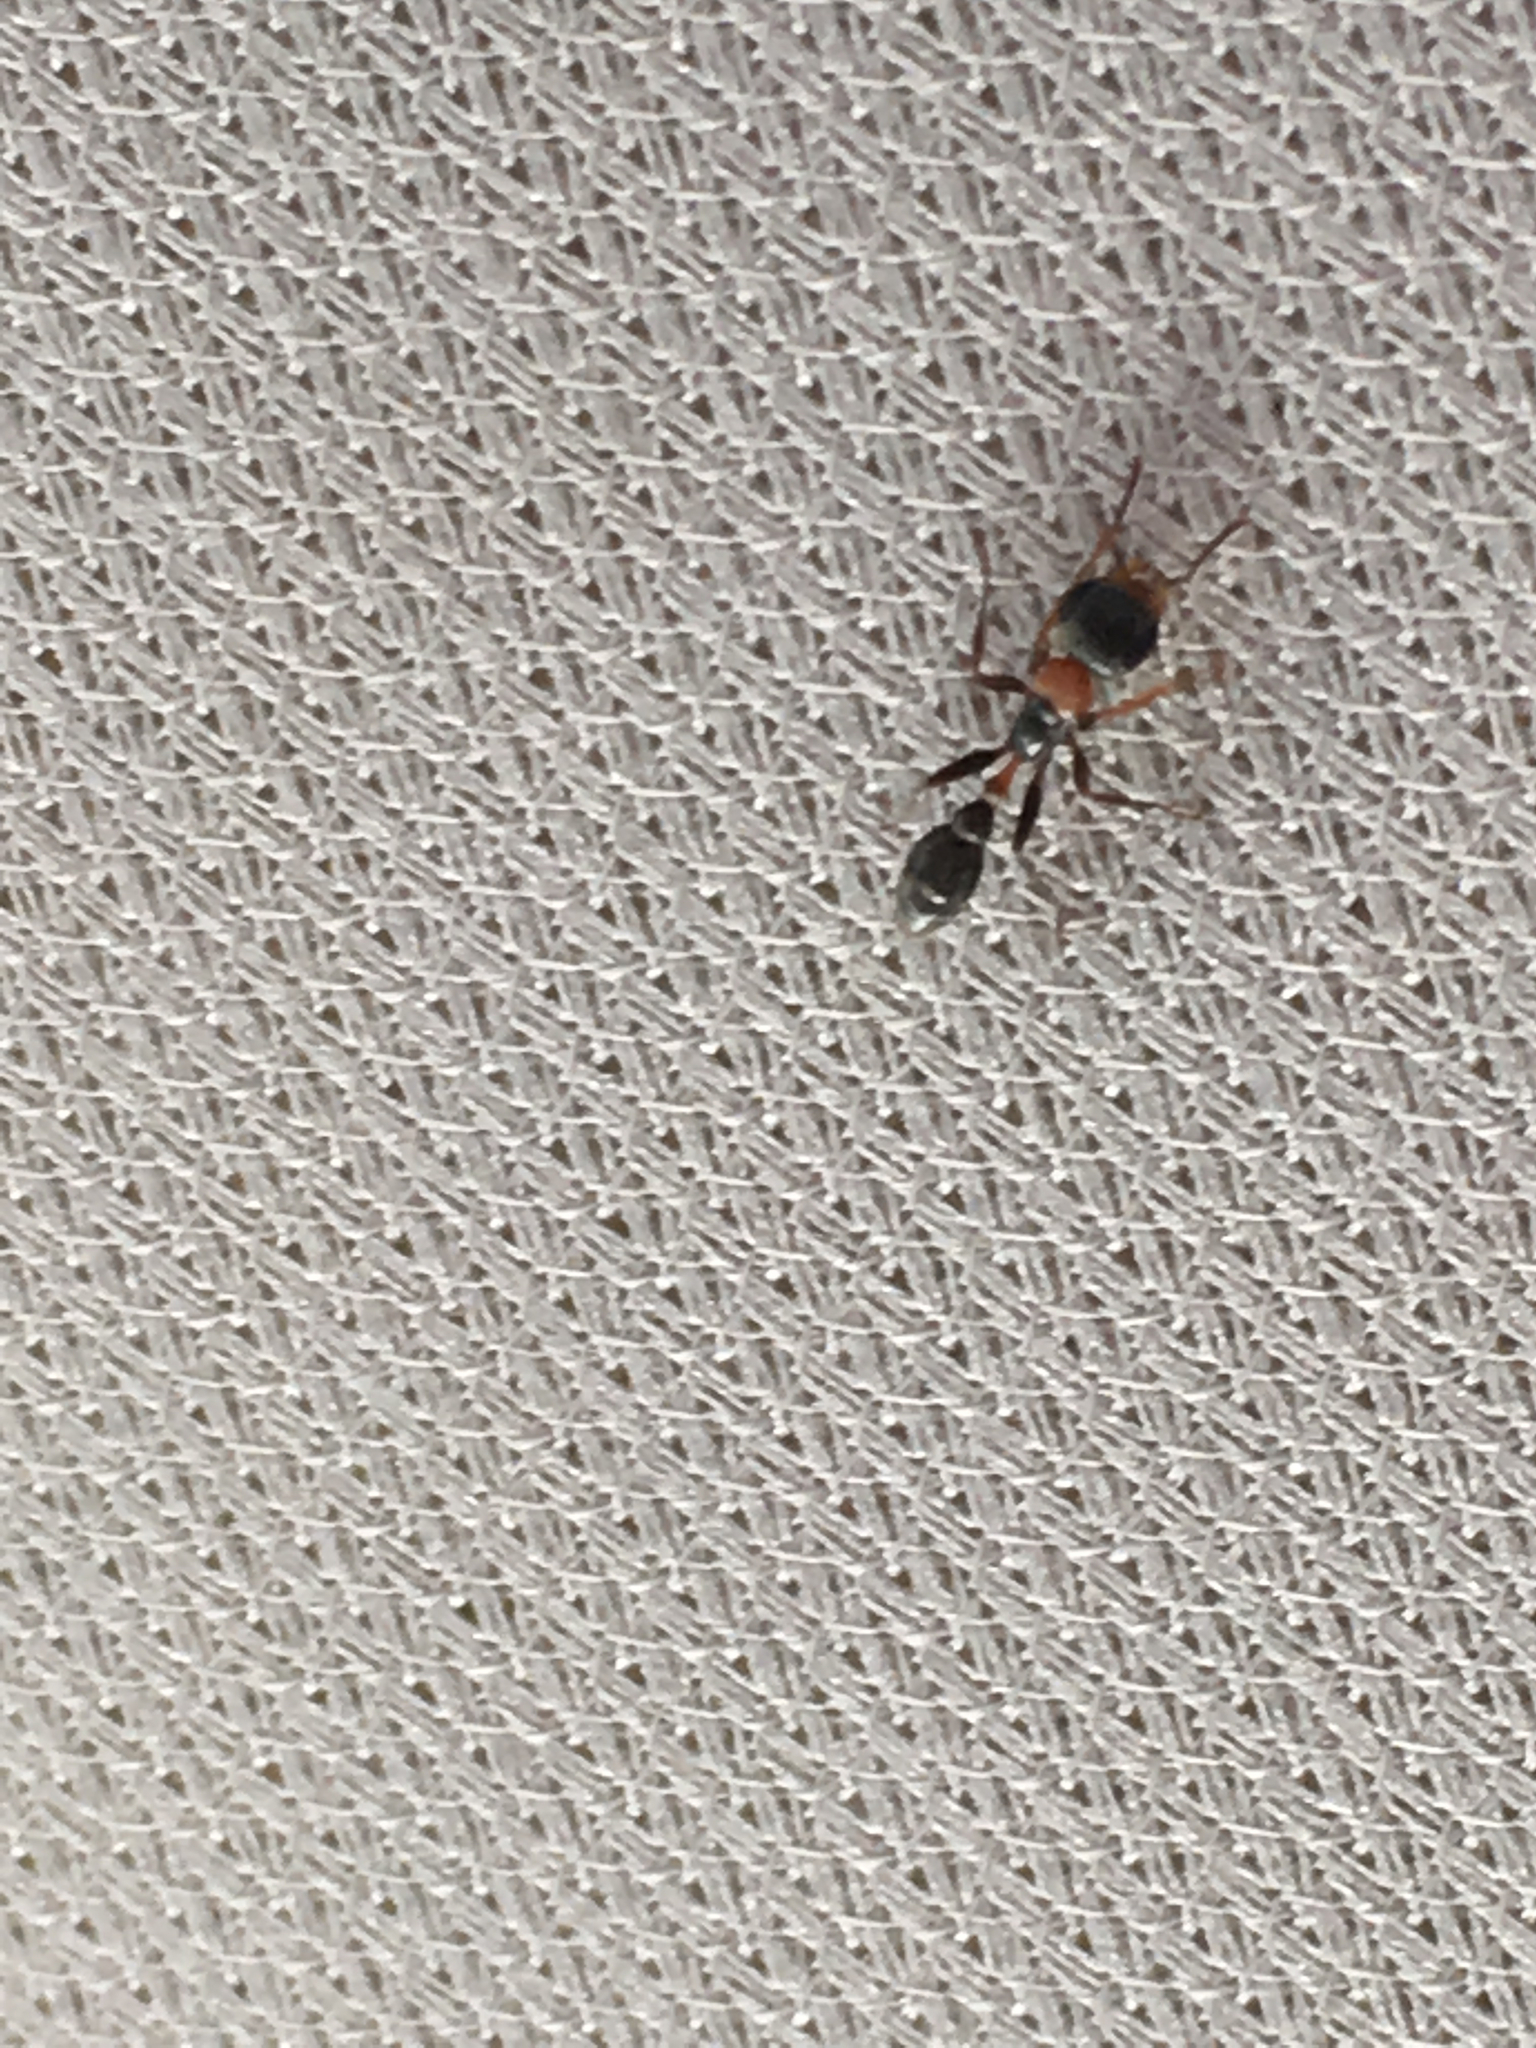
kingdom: Animalia
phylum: Arthropoda
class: Insecta
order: Hymenoptera
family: Formicidae
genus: Pseudomyrmex
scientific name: Pseudomyrmex gracilis
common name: Graceful twig ant
